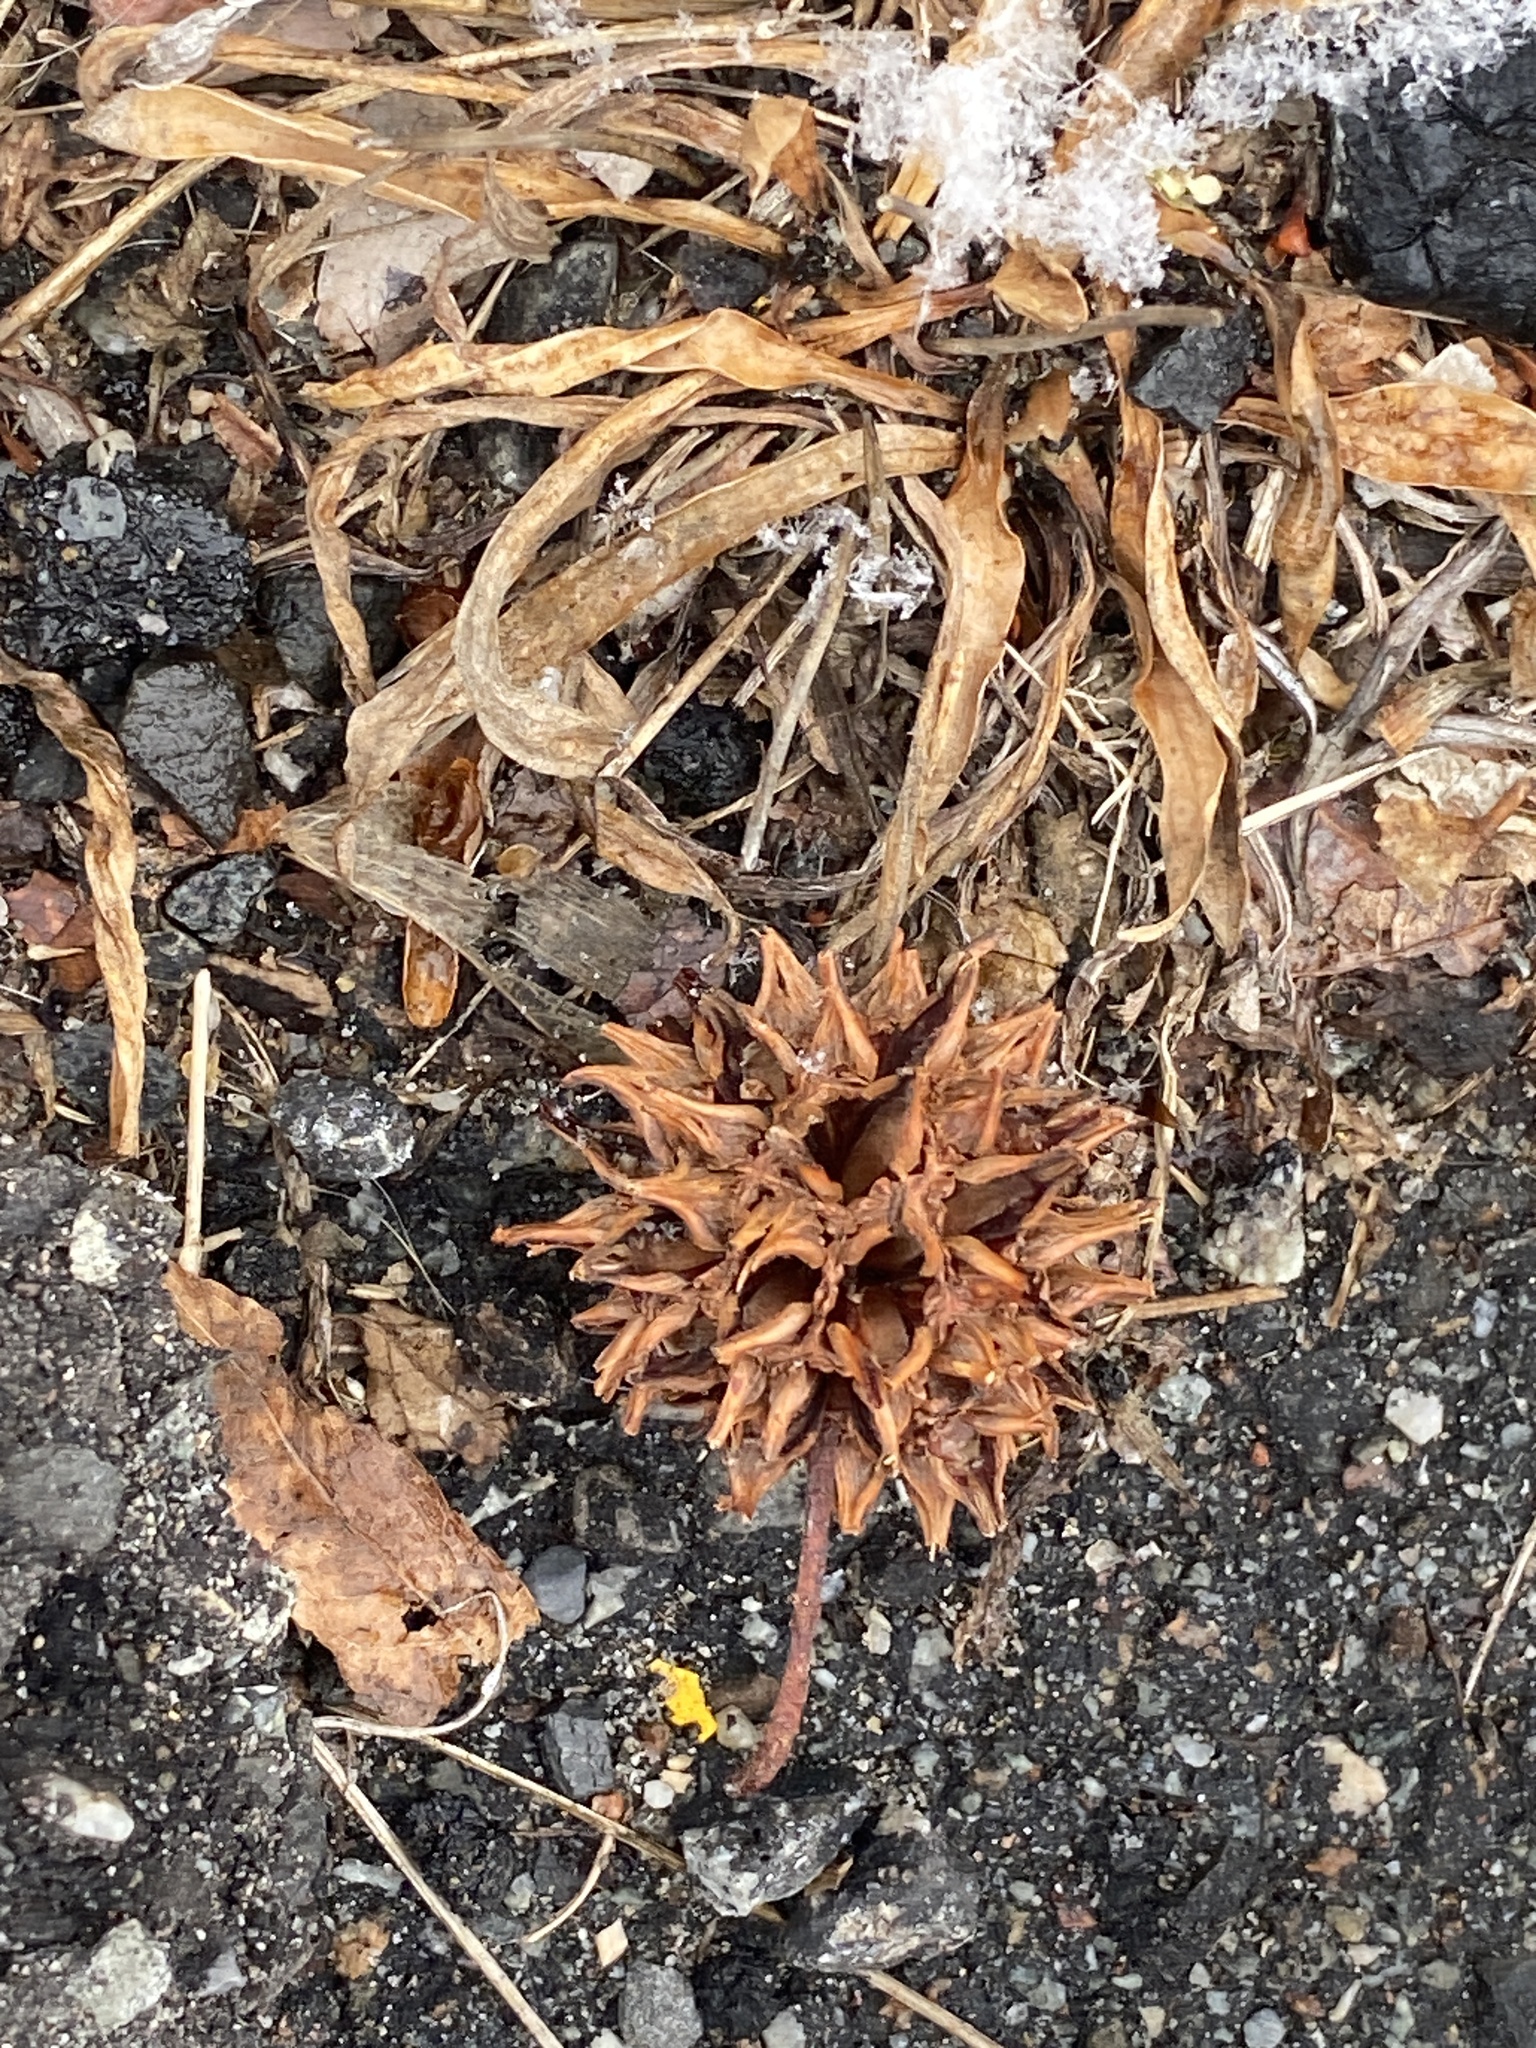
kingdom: Plantae
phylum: Tracheophyta
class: Magnoliopsida
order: Saxifragales
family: Altingiaceae
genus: Liquidambar
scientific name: Liquidambar styraciflua
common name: Sweet gum
